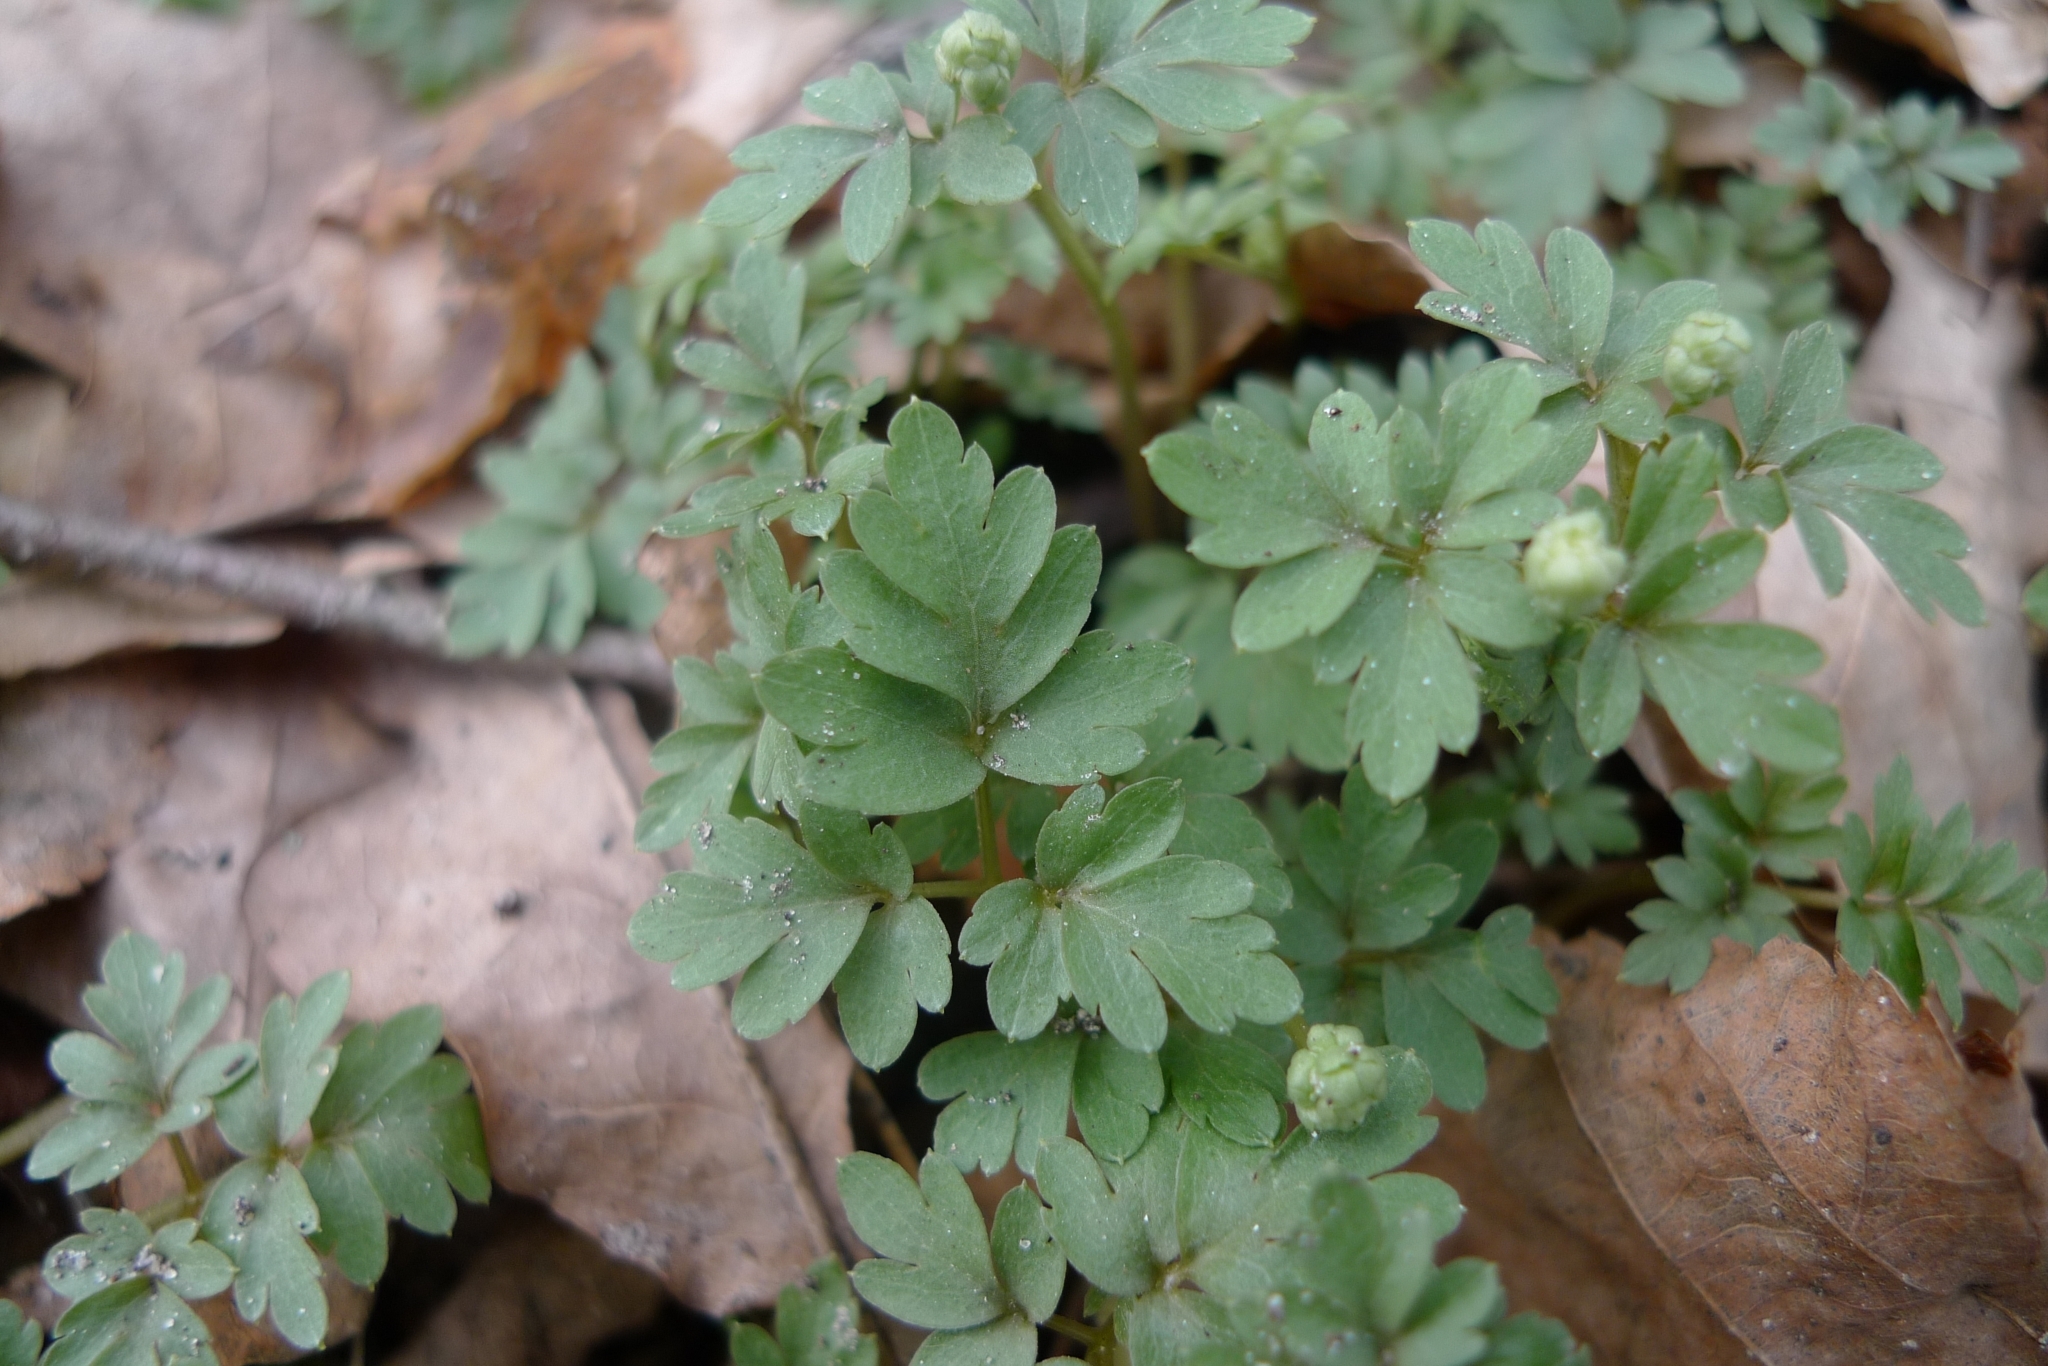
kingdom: Plantae
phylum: Tracheophyta
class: Magnoliopsida
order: Dipsacales
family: Viburnaceae
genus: Adoxa
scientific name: Adoxa moschatellina
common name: Moschatel
